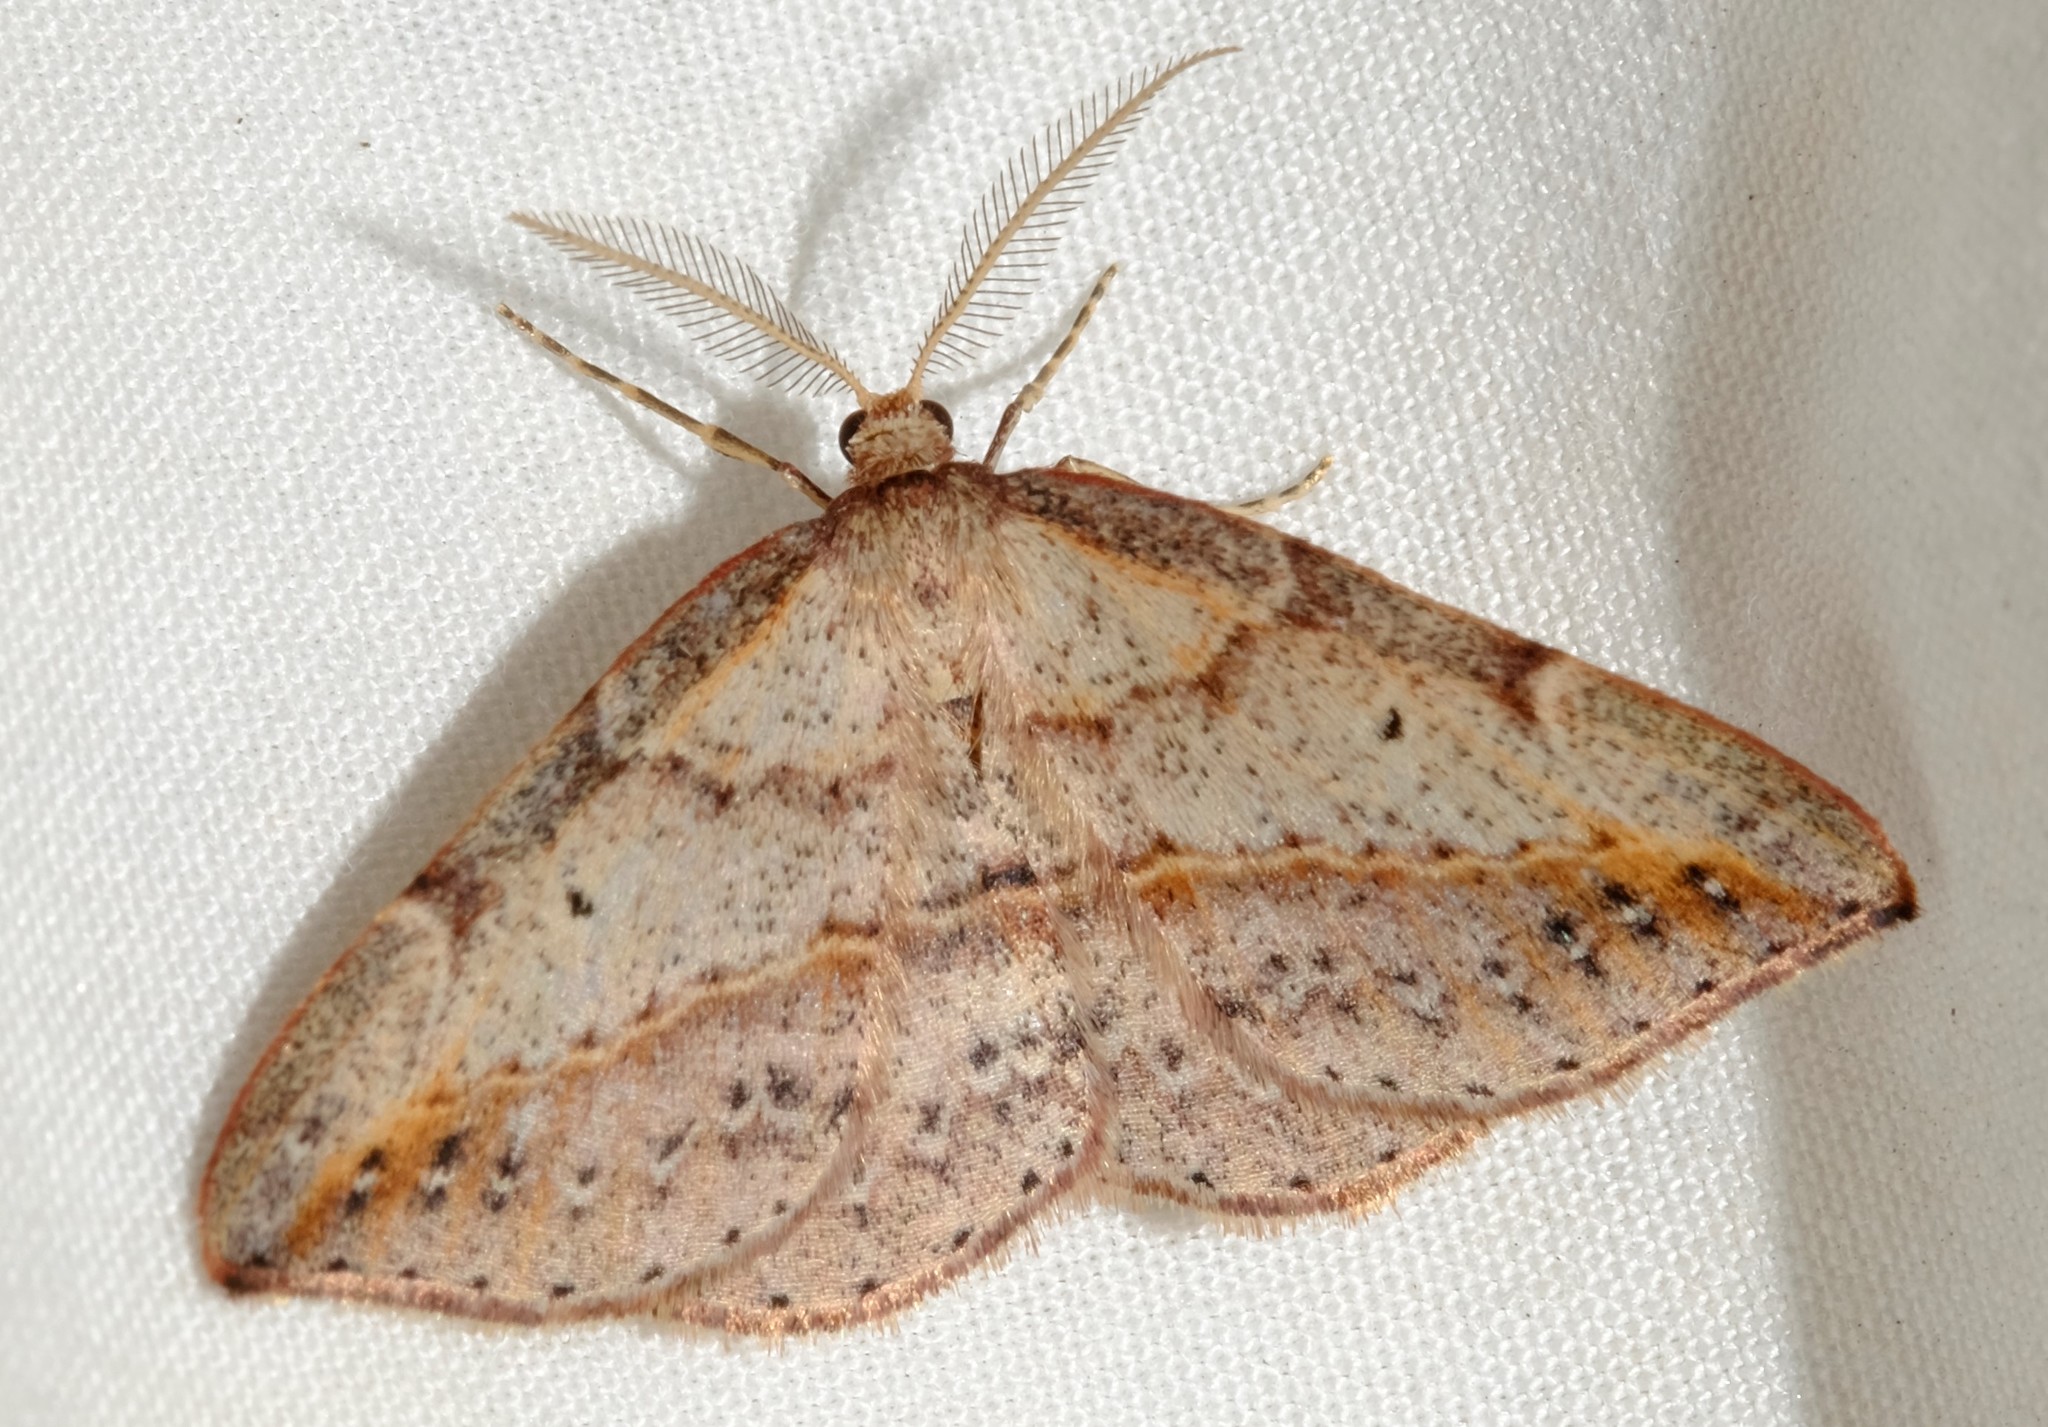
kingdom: Animalia
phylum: Arthropoda
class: Insecta
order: Lepidoptera
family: Geometridae
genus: Zeuctophlebia
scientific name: Zeuctophlebia squalidata
